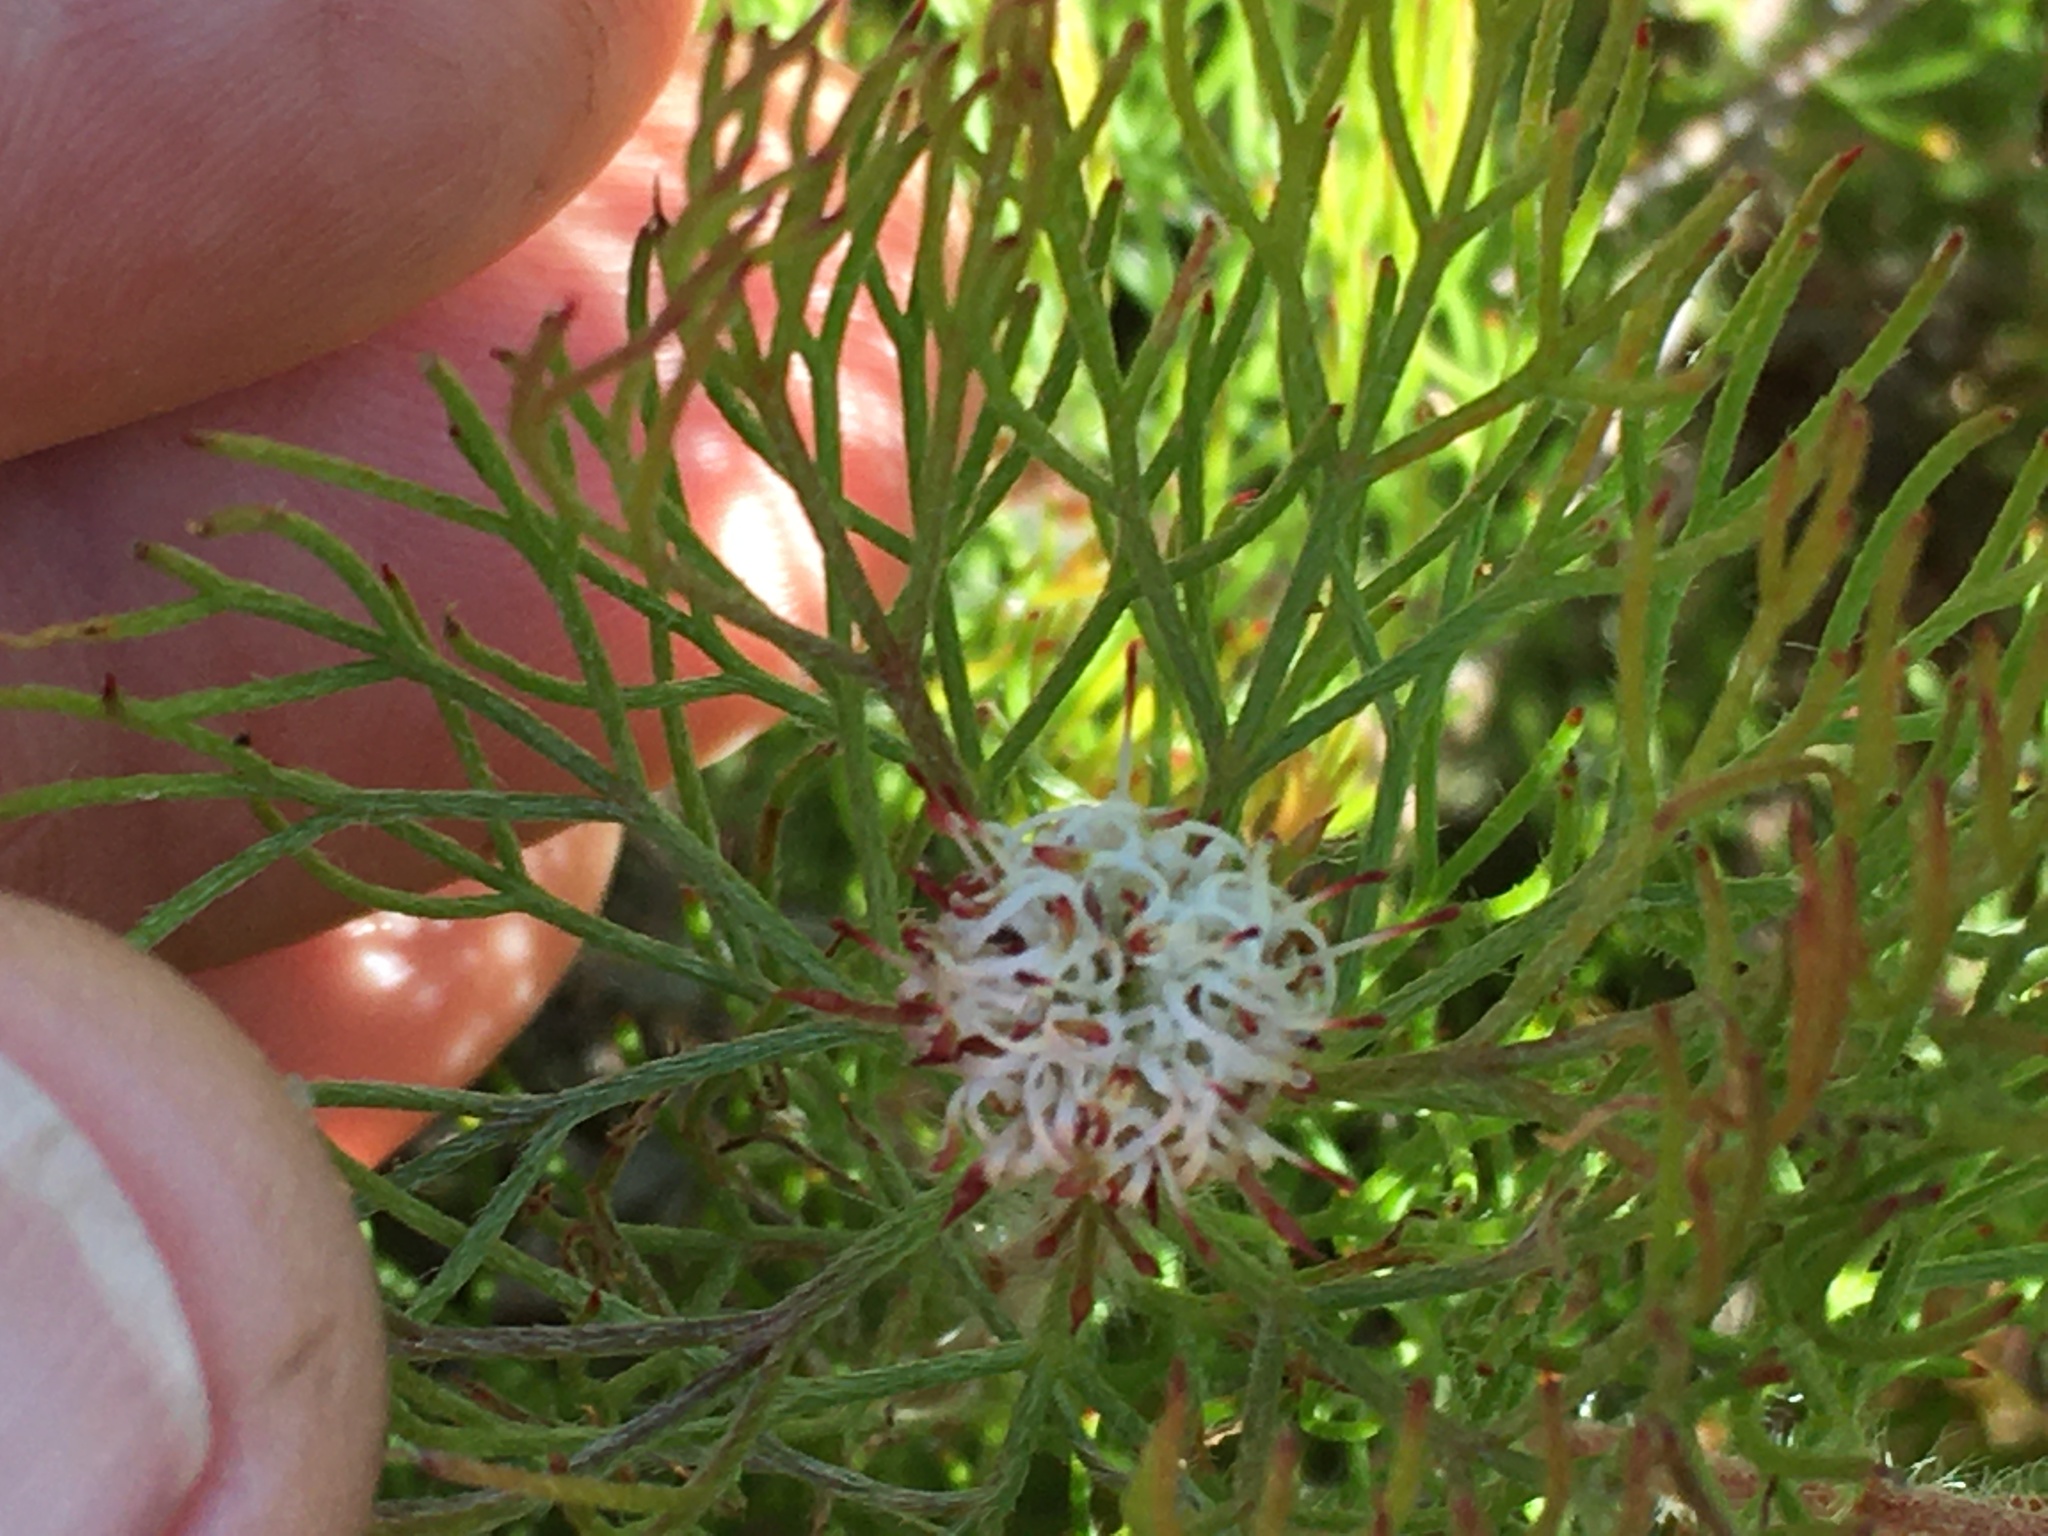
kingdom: Plantae
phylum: Tracheophyta
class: Magnoliopsida
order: Proteales
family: Proteaceae
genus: Serruria
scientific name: Serruria fasciflora
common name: Common pin spiderhead
